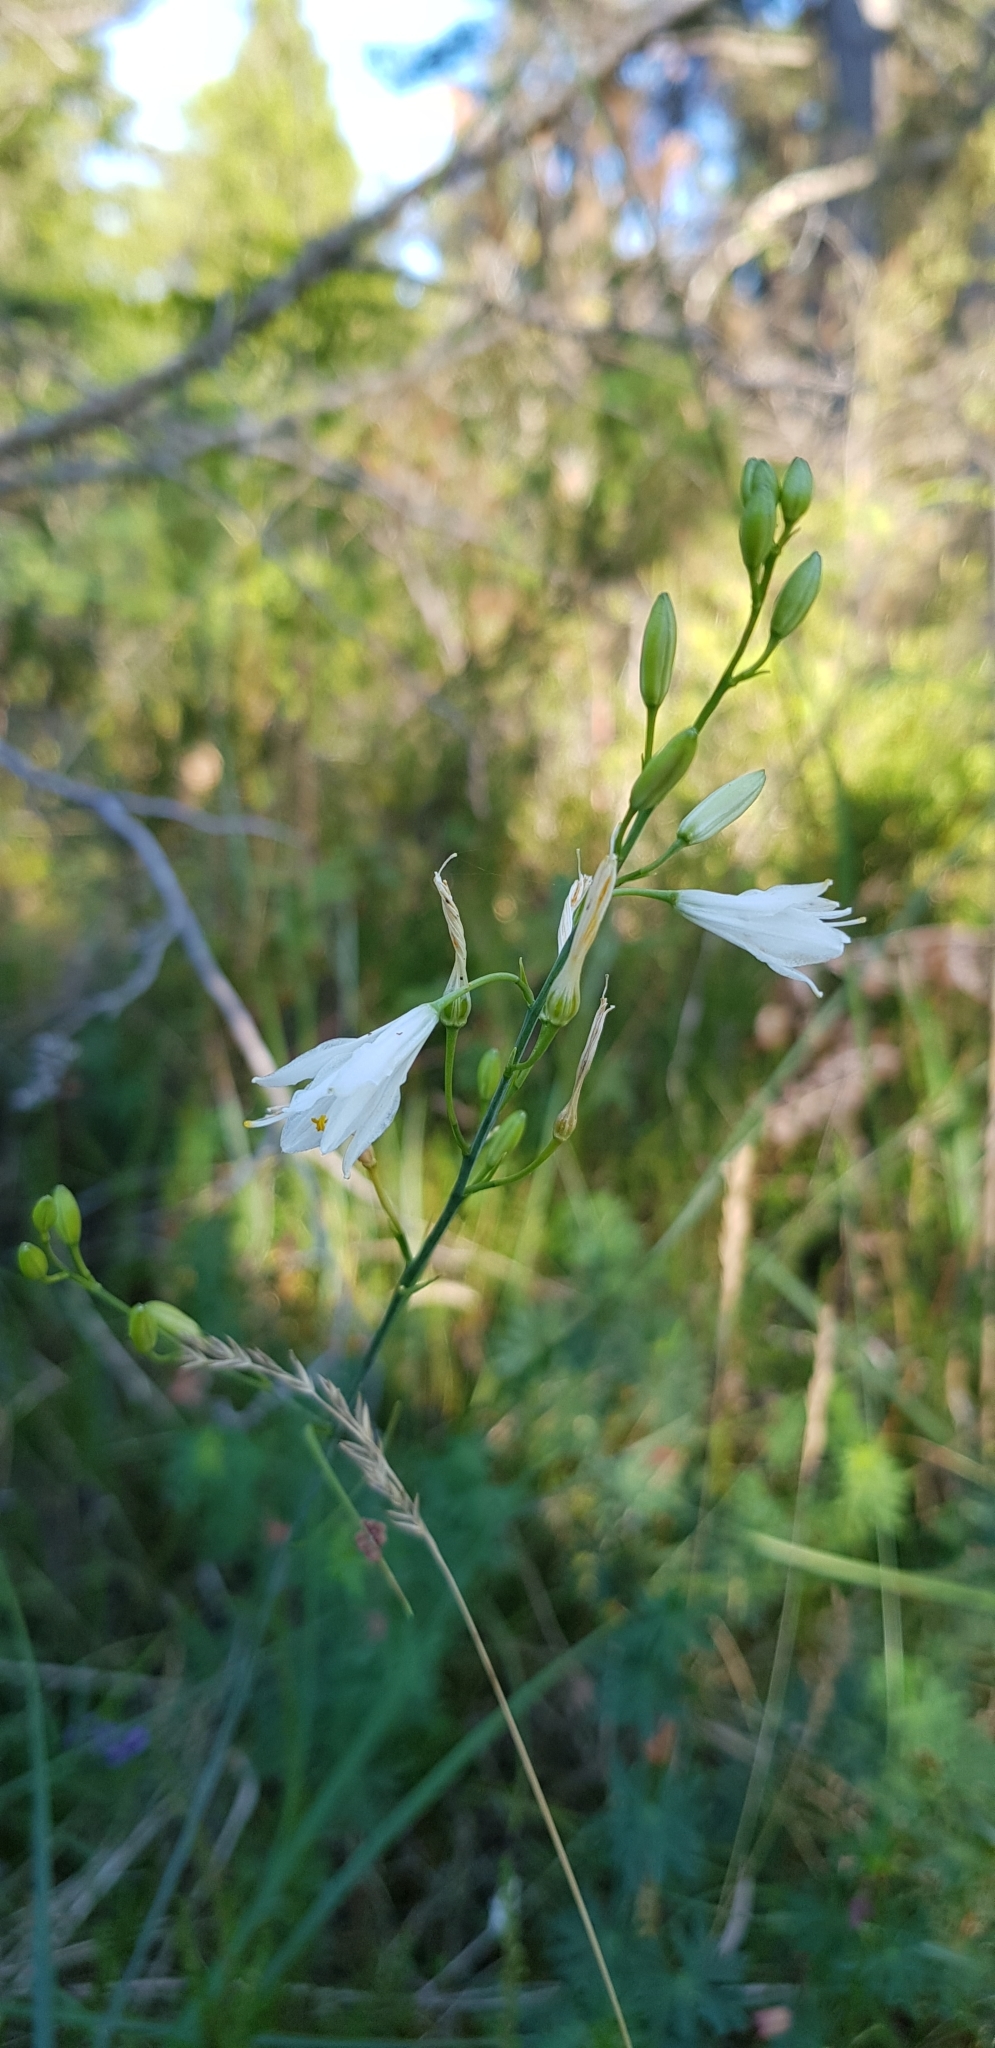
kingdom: Plantae
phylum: Tracheophyta
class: Liliopsida
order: Asparagales
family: Asparagaceae
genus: Anthericum
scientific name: Anthericum ramosum
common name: Branched st. bernard's-lily
